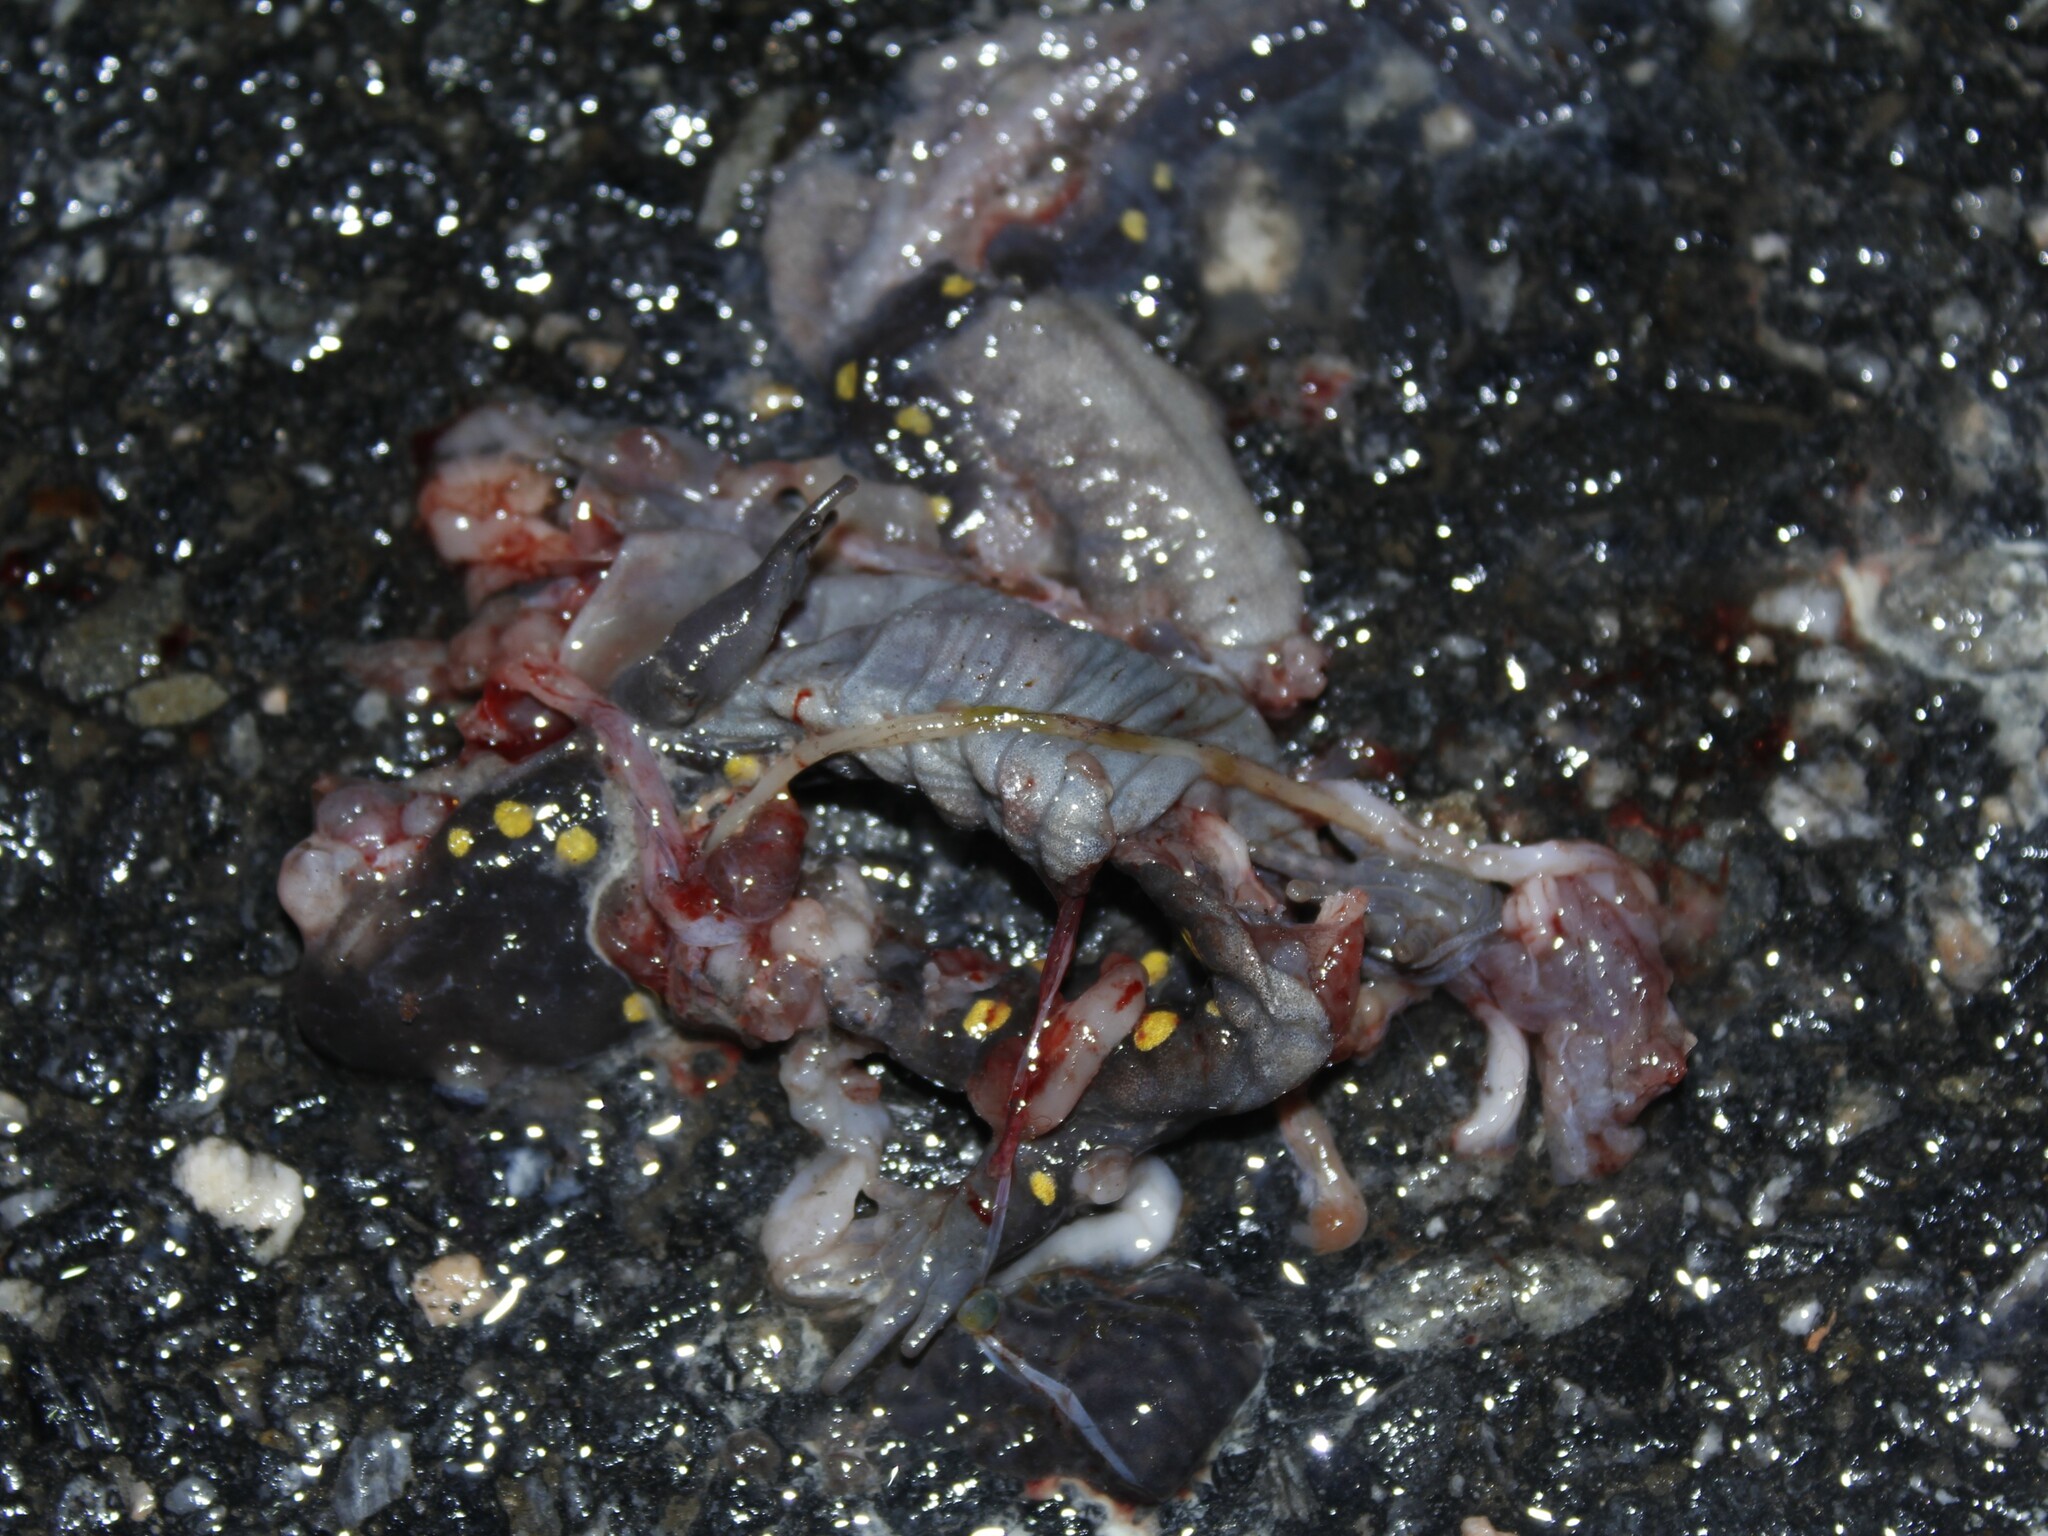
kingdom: Animalia
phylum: Chordata
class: Amphibia
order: Caudata
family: Ambystomatidae
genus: Ambystoma
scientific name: Ambystoma maculatum
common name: Spotted salamander
